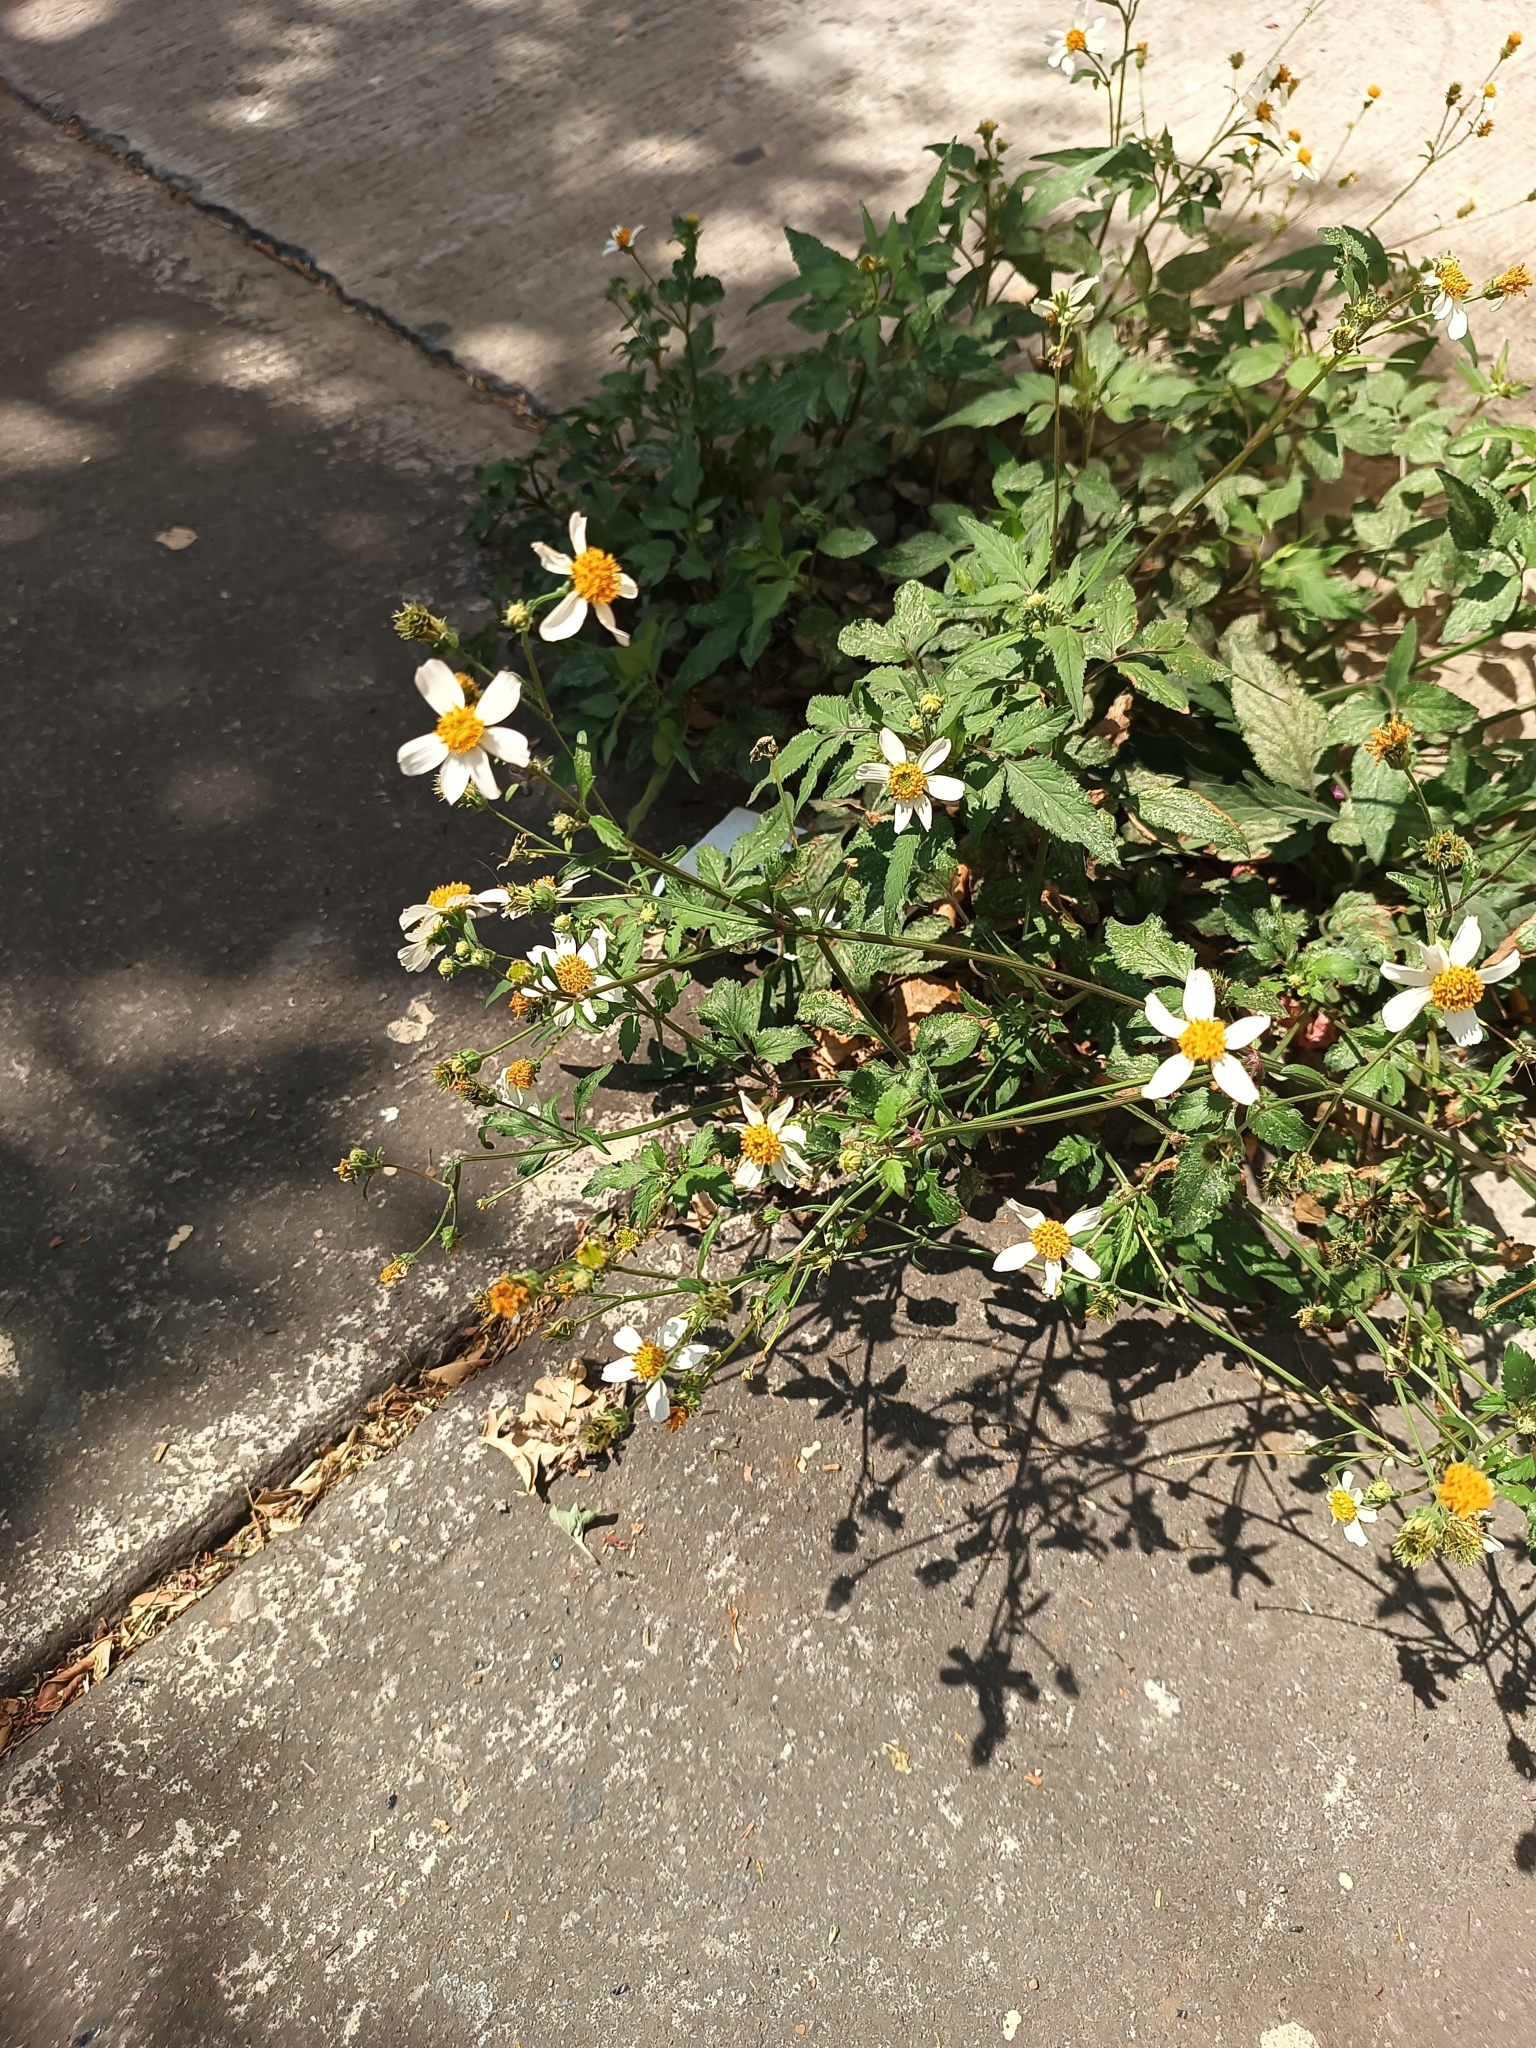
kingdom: Plantae
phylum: Tracheophyta
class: Magnoliopsida
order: Asterales
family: Asteraceae
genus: Bidens
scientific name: Bidens odorata
